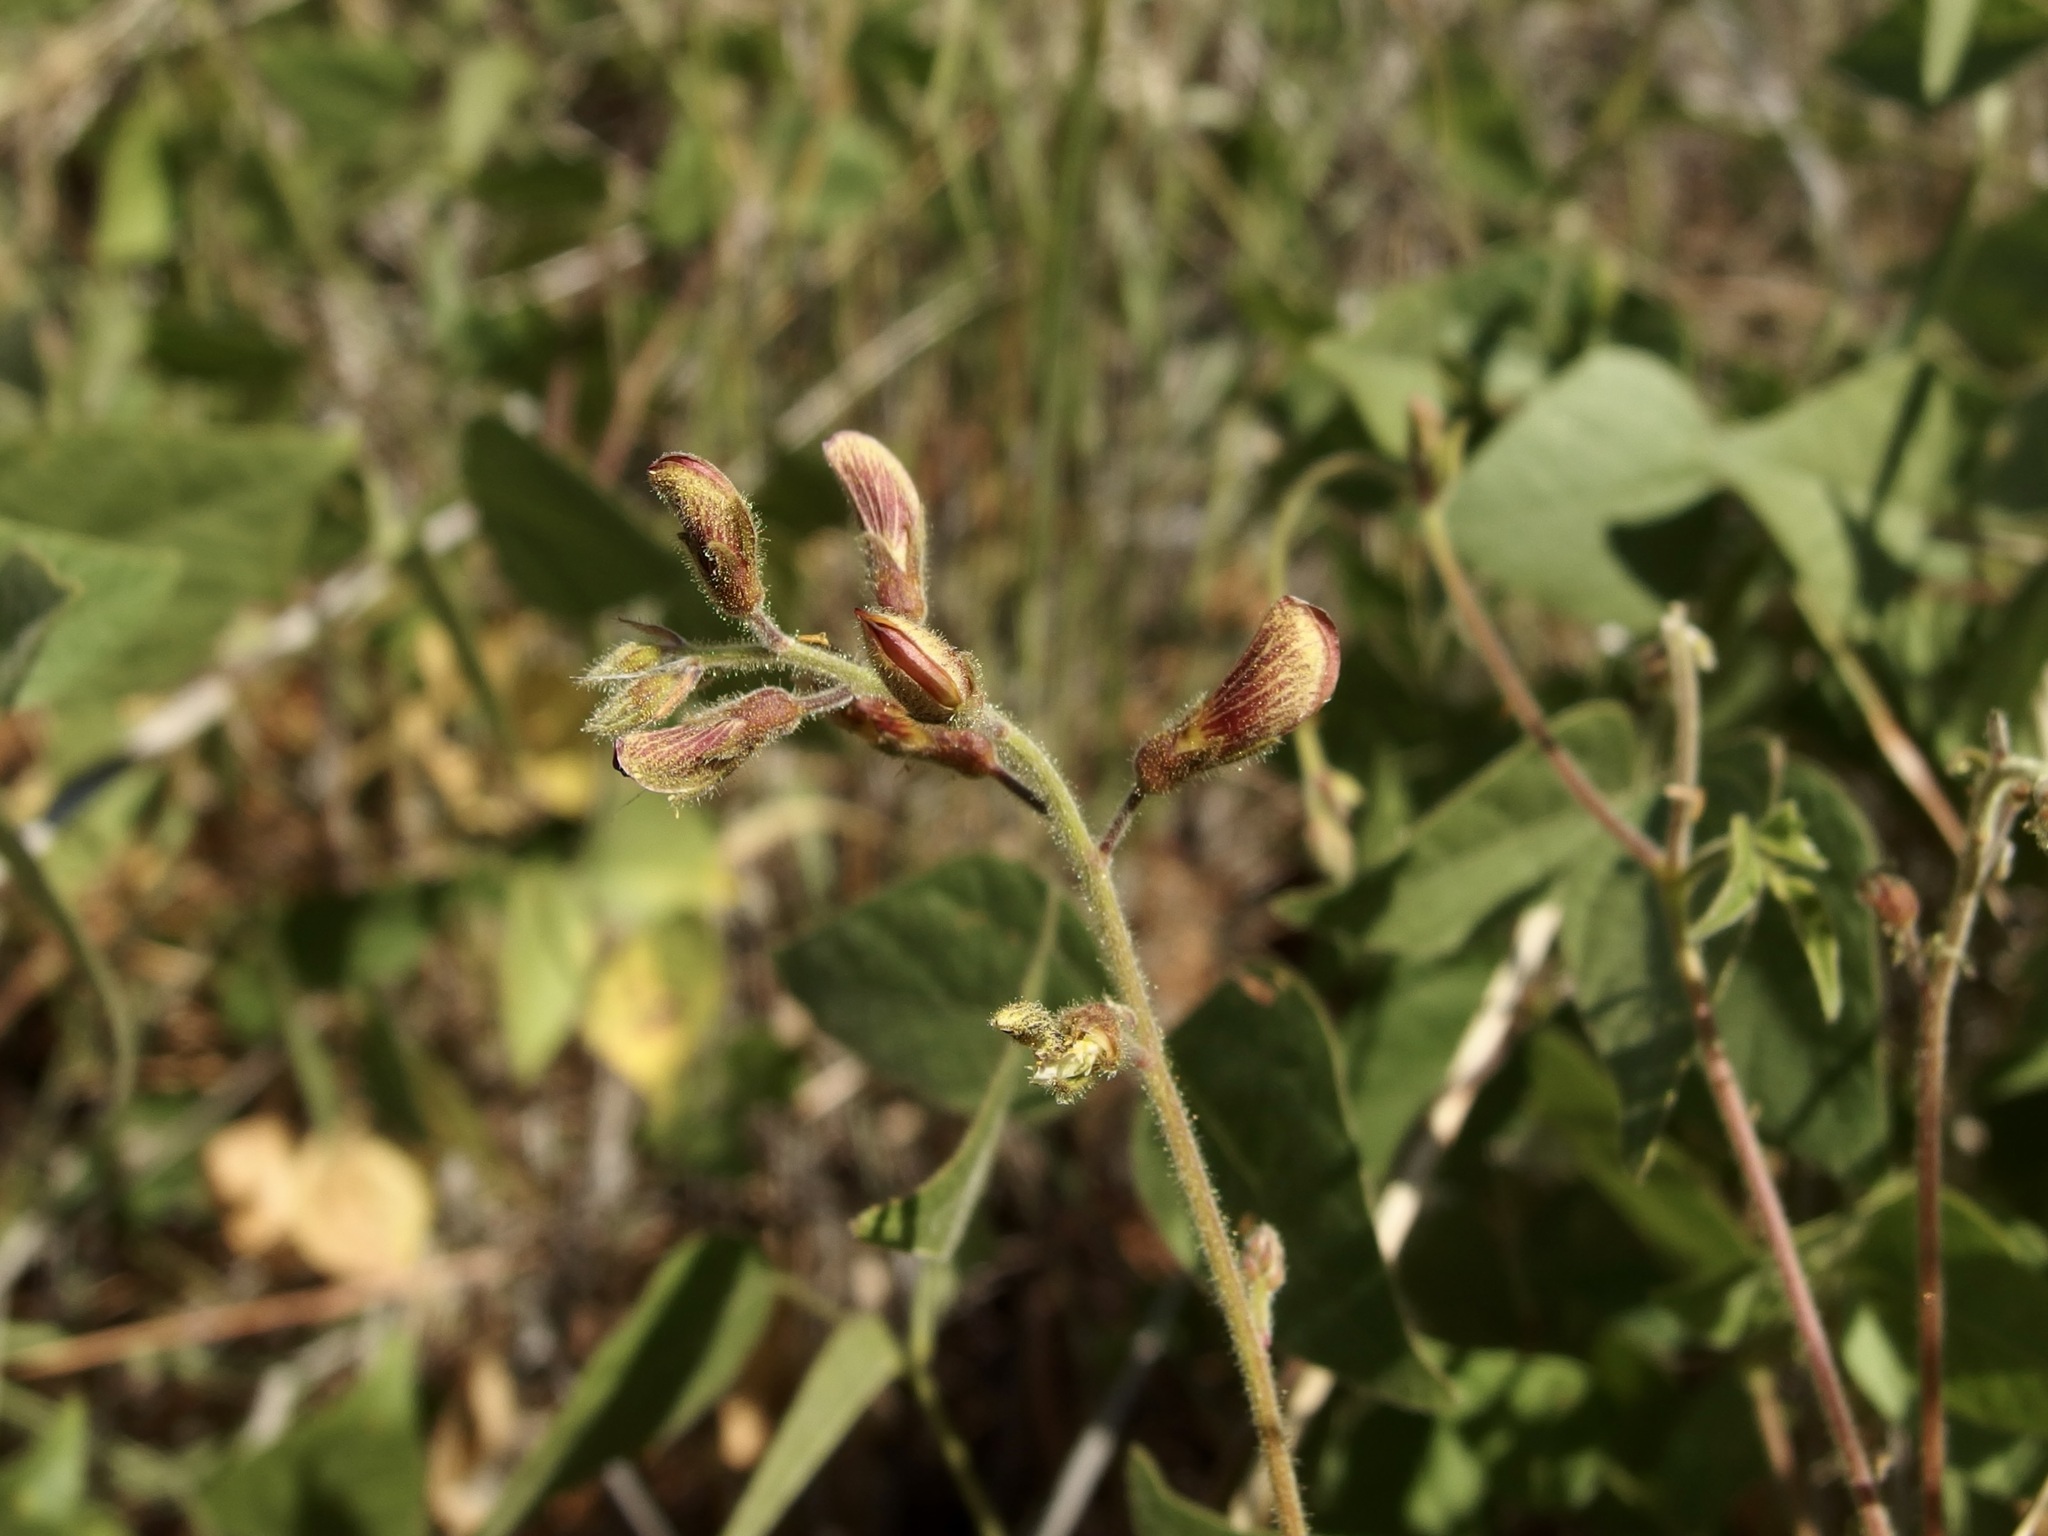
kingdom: Plantae
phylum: Tracheophyta
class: Magnoliopsida
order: Fabales
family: Fabaceae
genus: Rhynchosia
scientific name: Rhynchosia edulis
